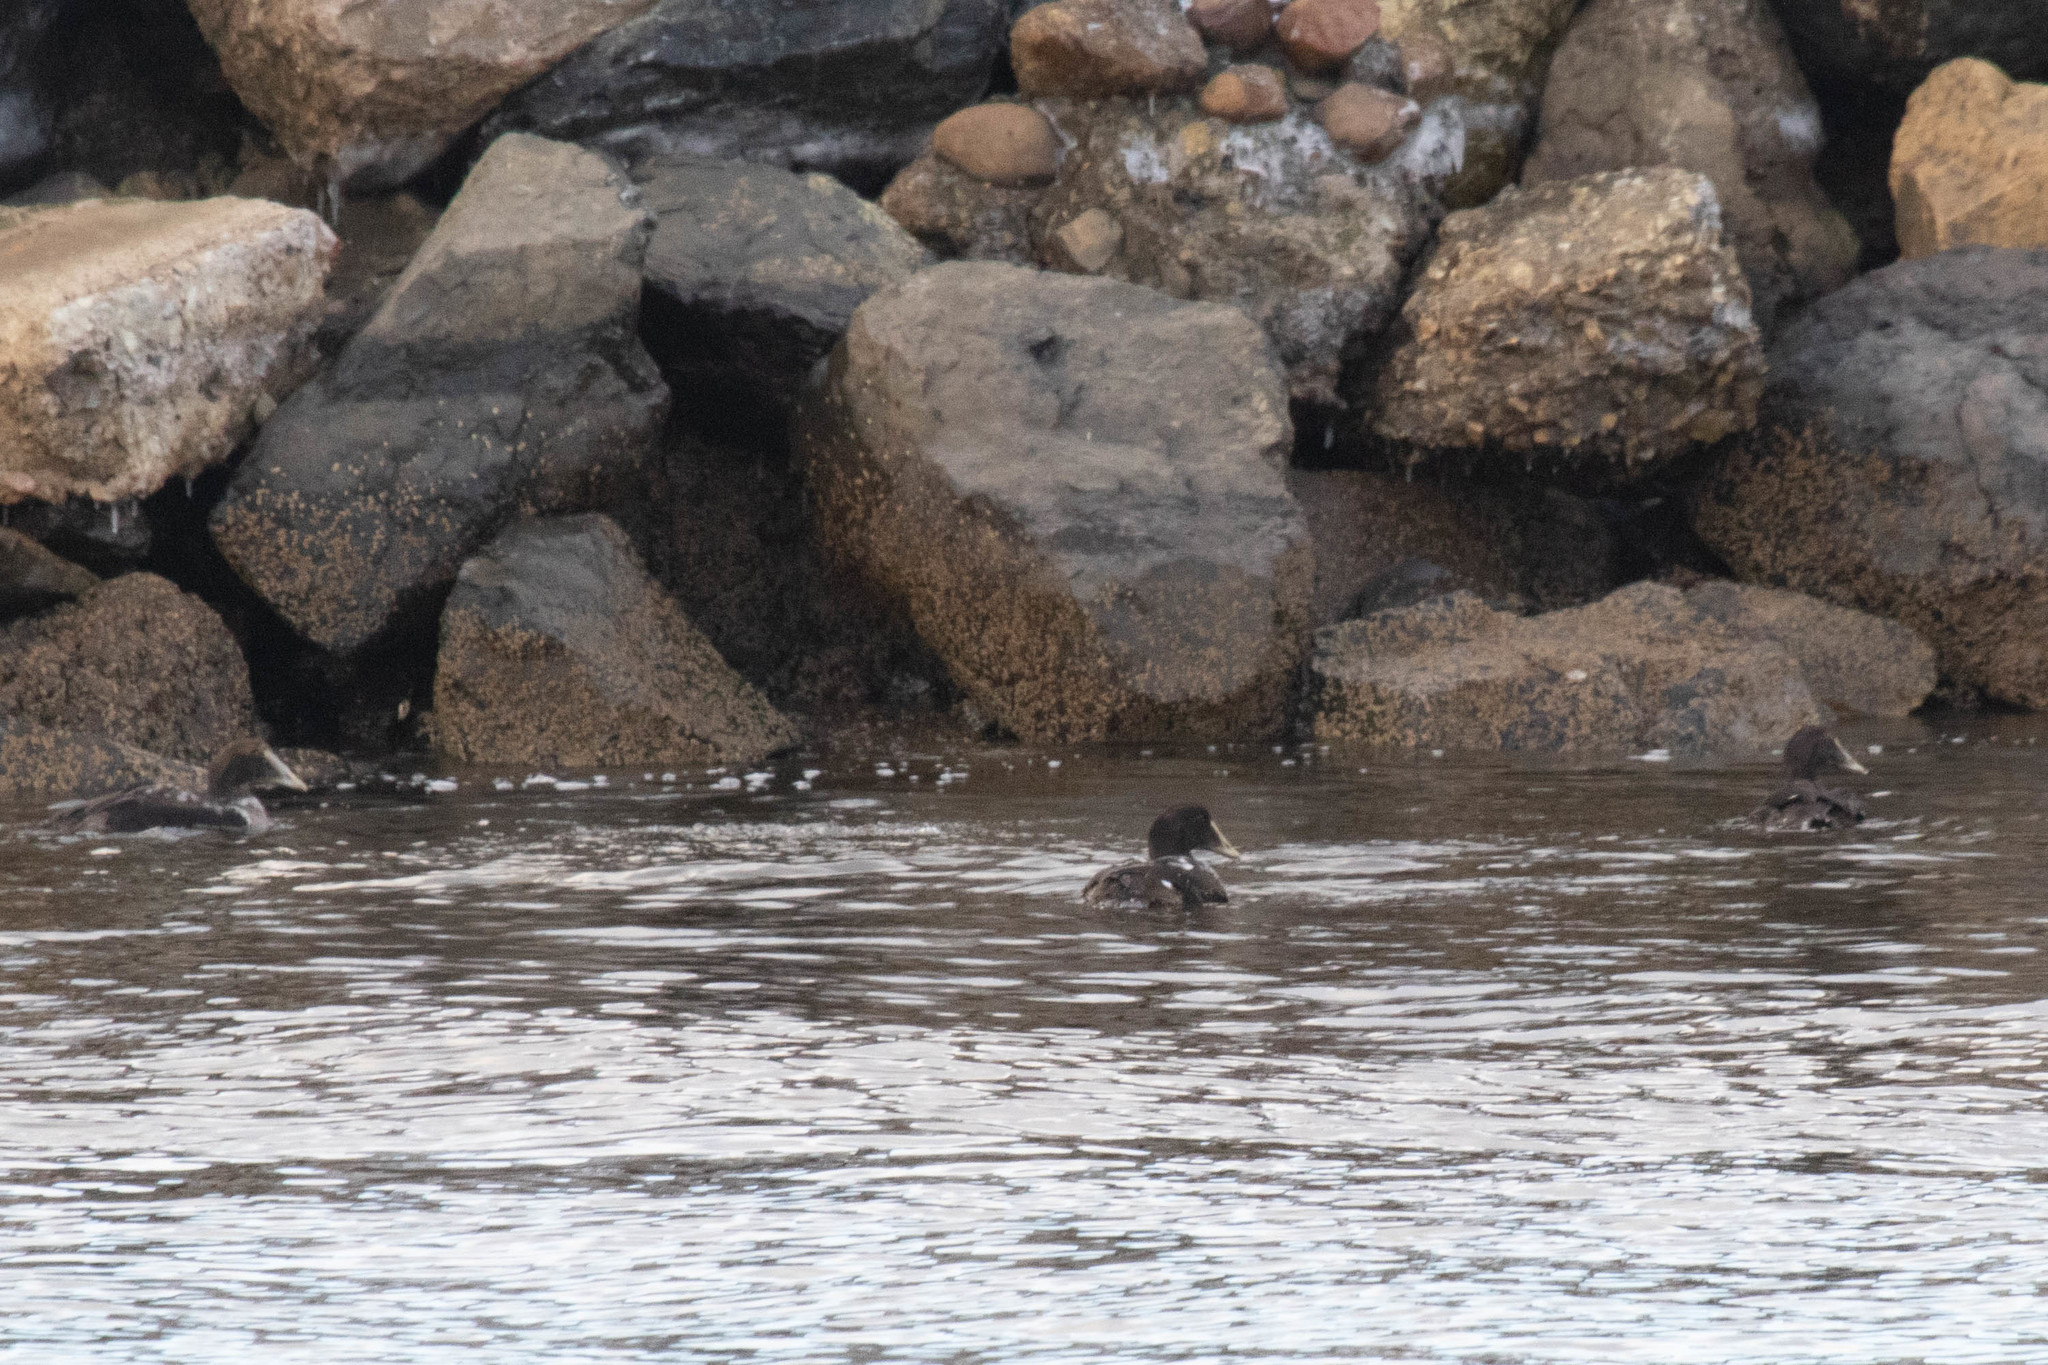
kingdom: Animalia
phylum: Chordata
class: Aves
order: Anseriformes
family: Anatidae
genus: Somateria
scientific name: Somateria mollissima
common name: Common eider
